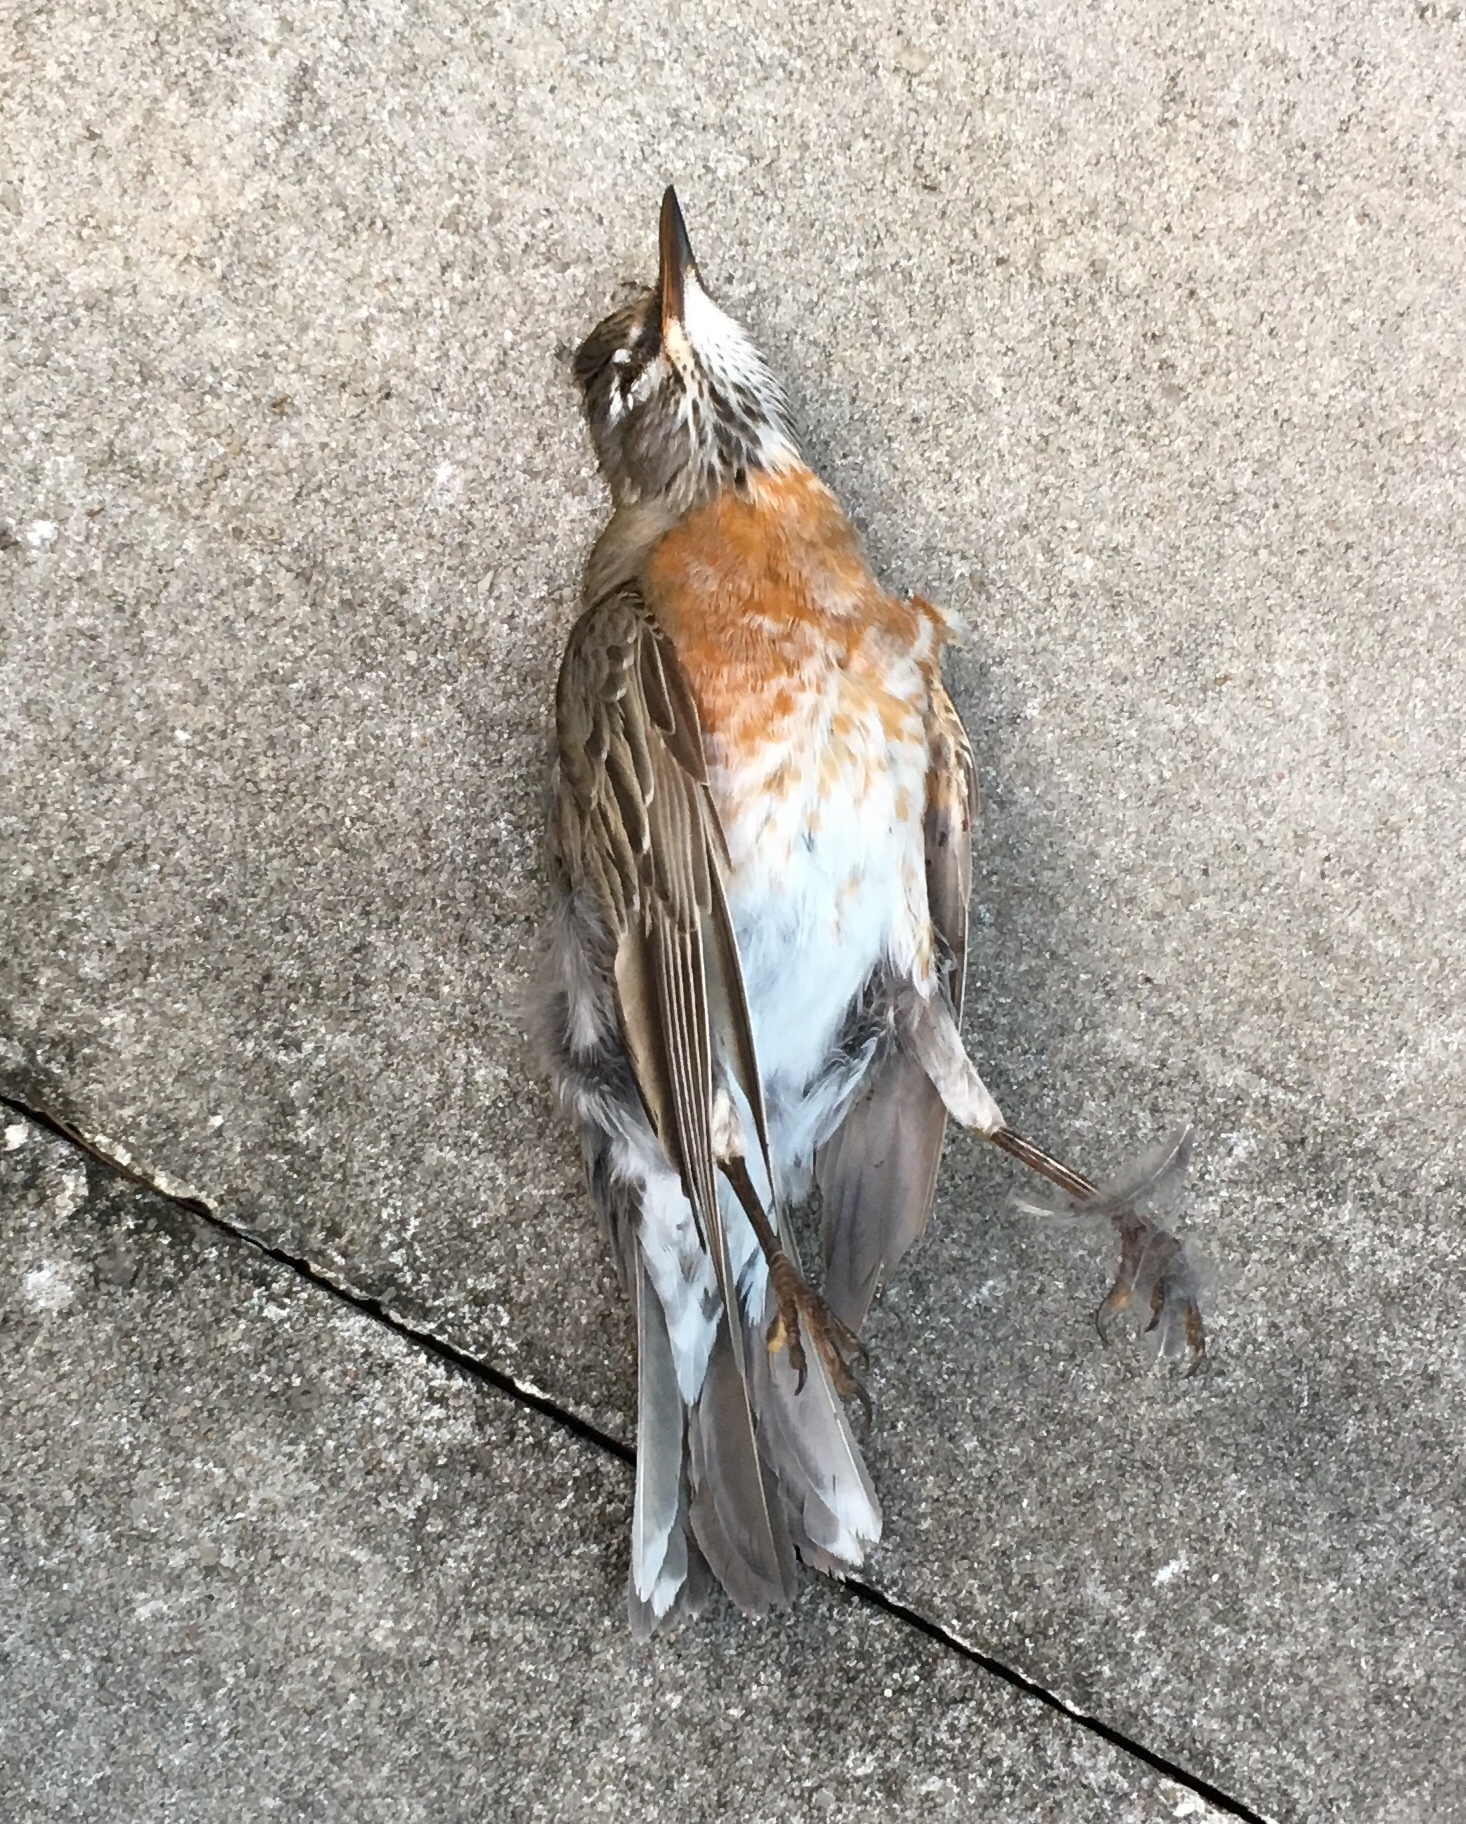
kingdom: Animalia
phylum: Chordata
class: Aves
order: Passeriformes
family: Turdidae
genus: Turdus
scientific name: Turdus migratorius
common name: American robin
